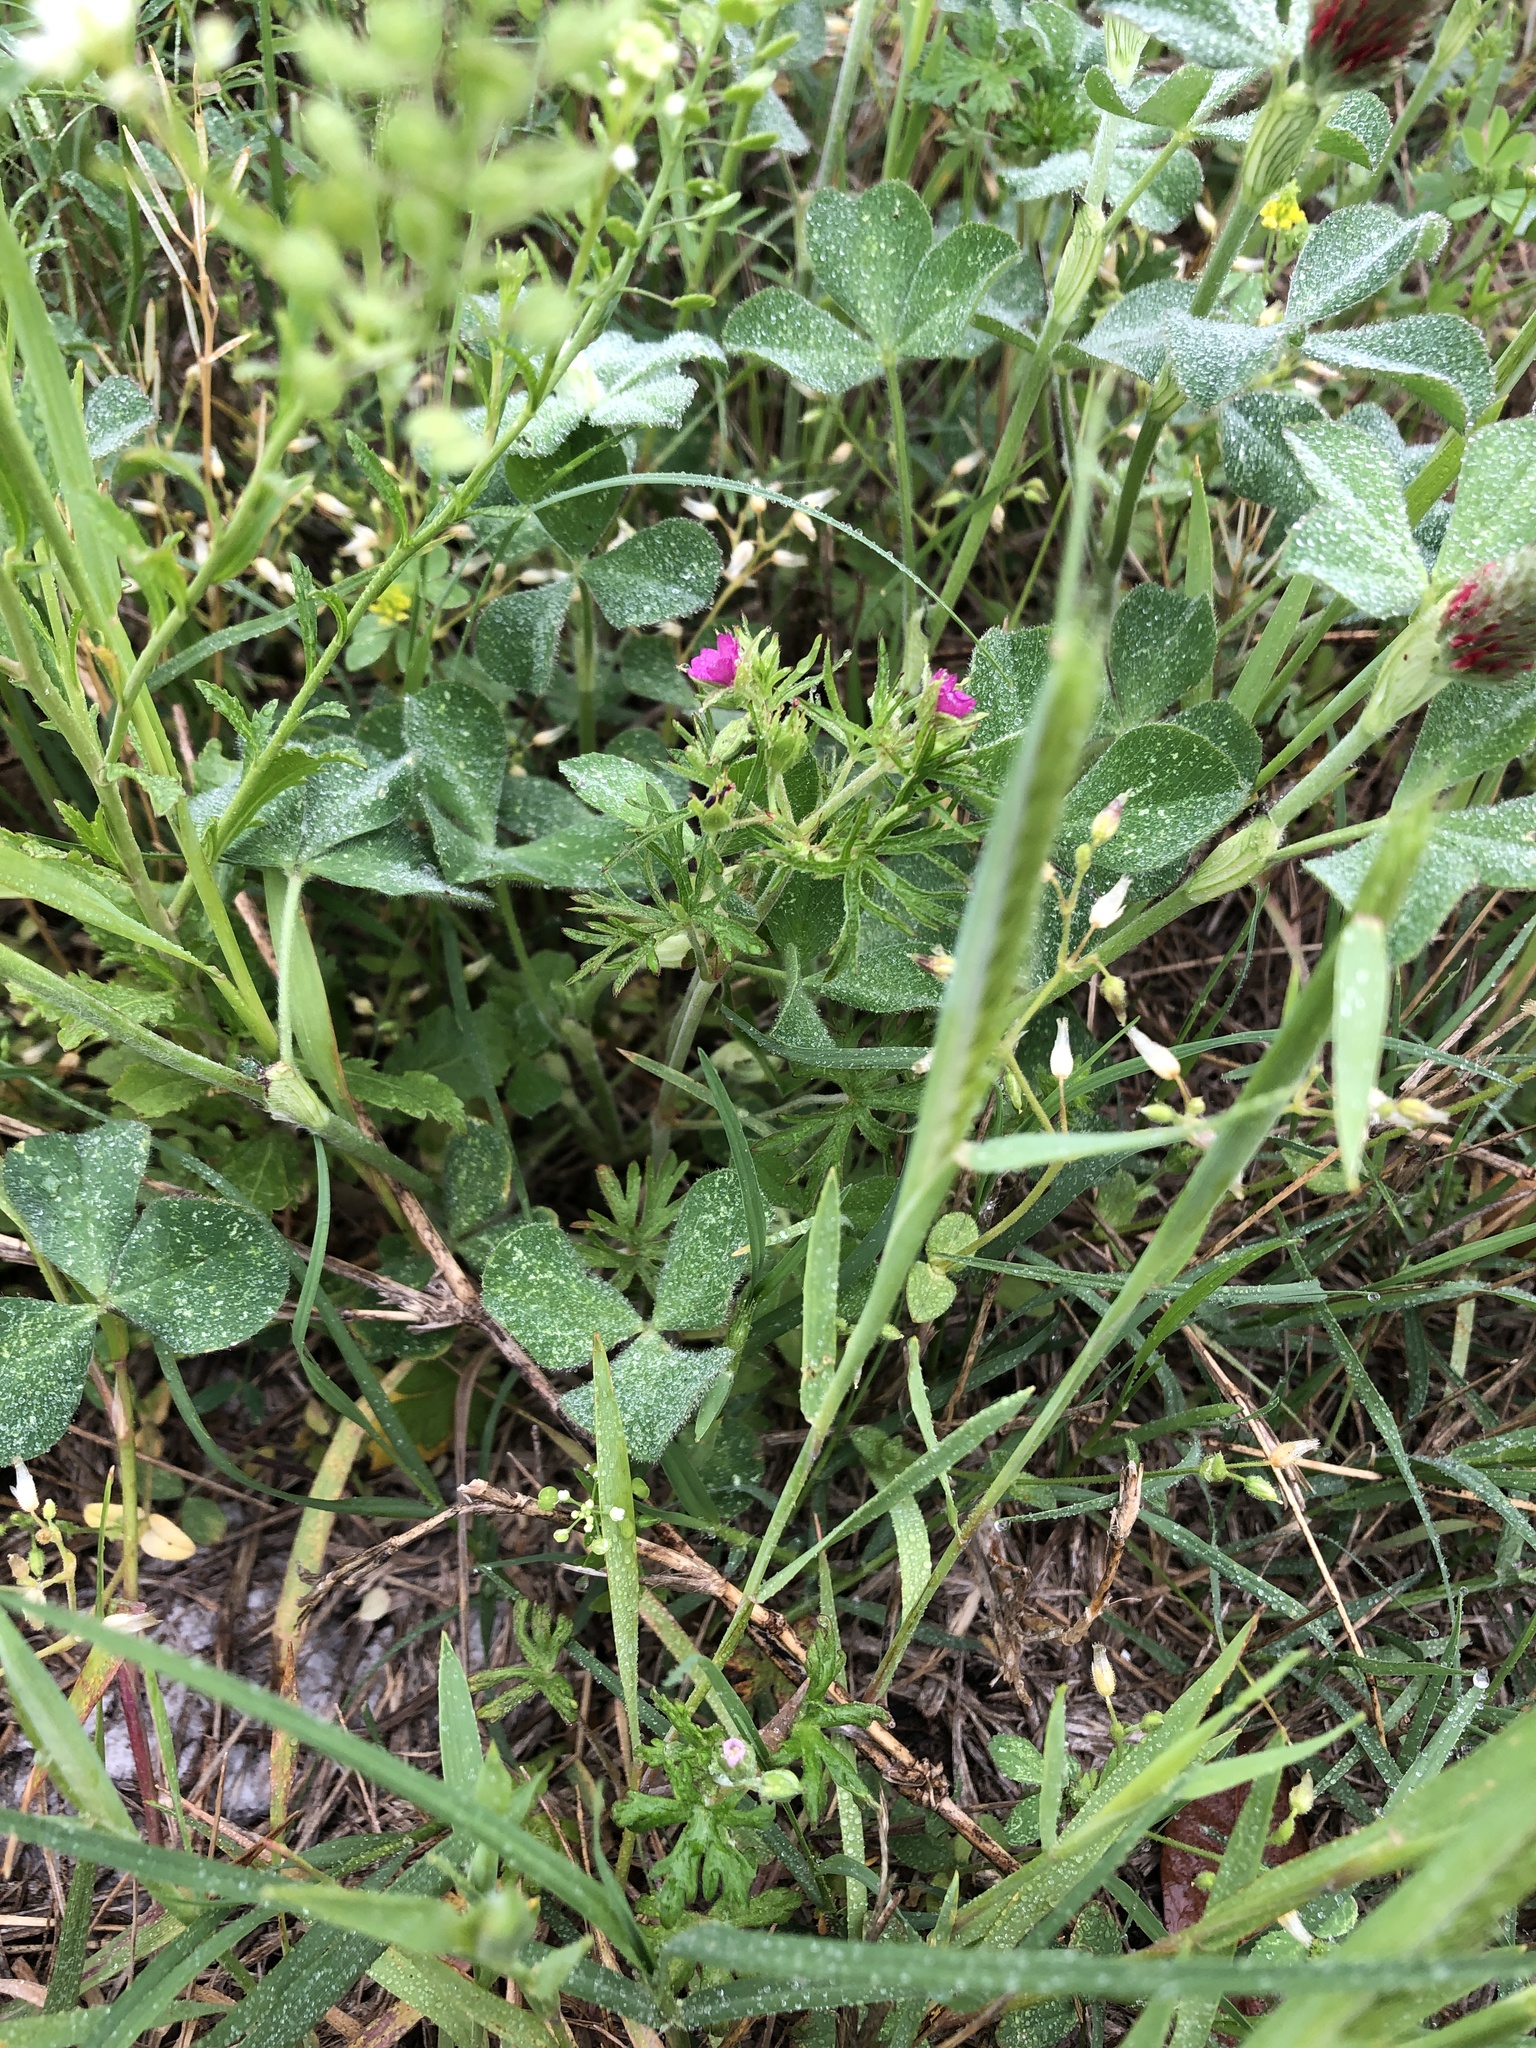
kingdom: Plantae
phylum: Tracheophyta
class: Magnoliopsida
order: Geraniales
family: Geraniaceae
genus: Geranium
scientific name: Geranium dissectum
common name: Cut-leaved crane's-bill
